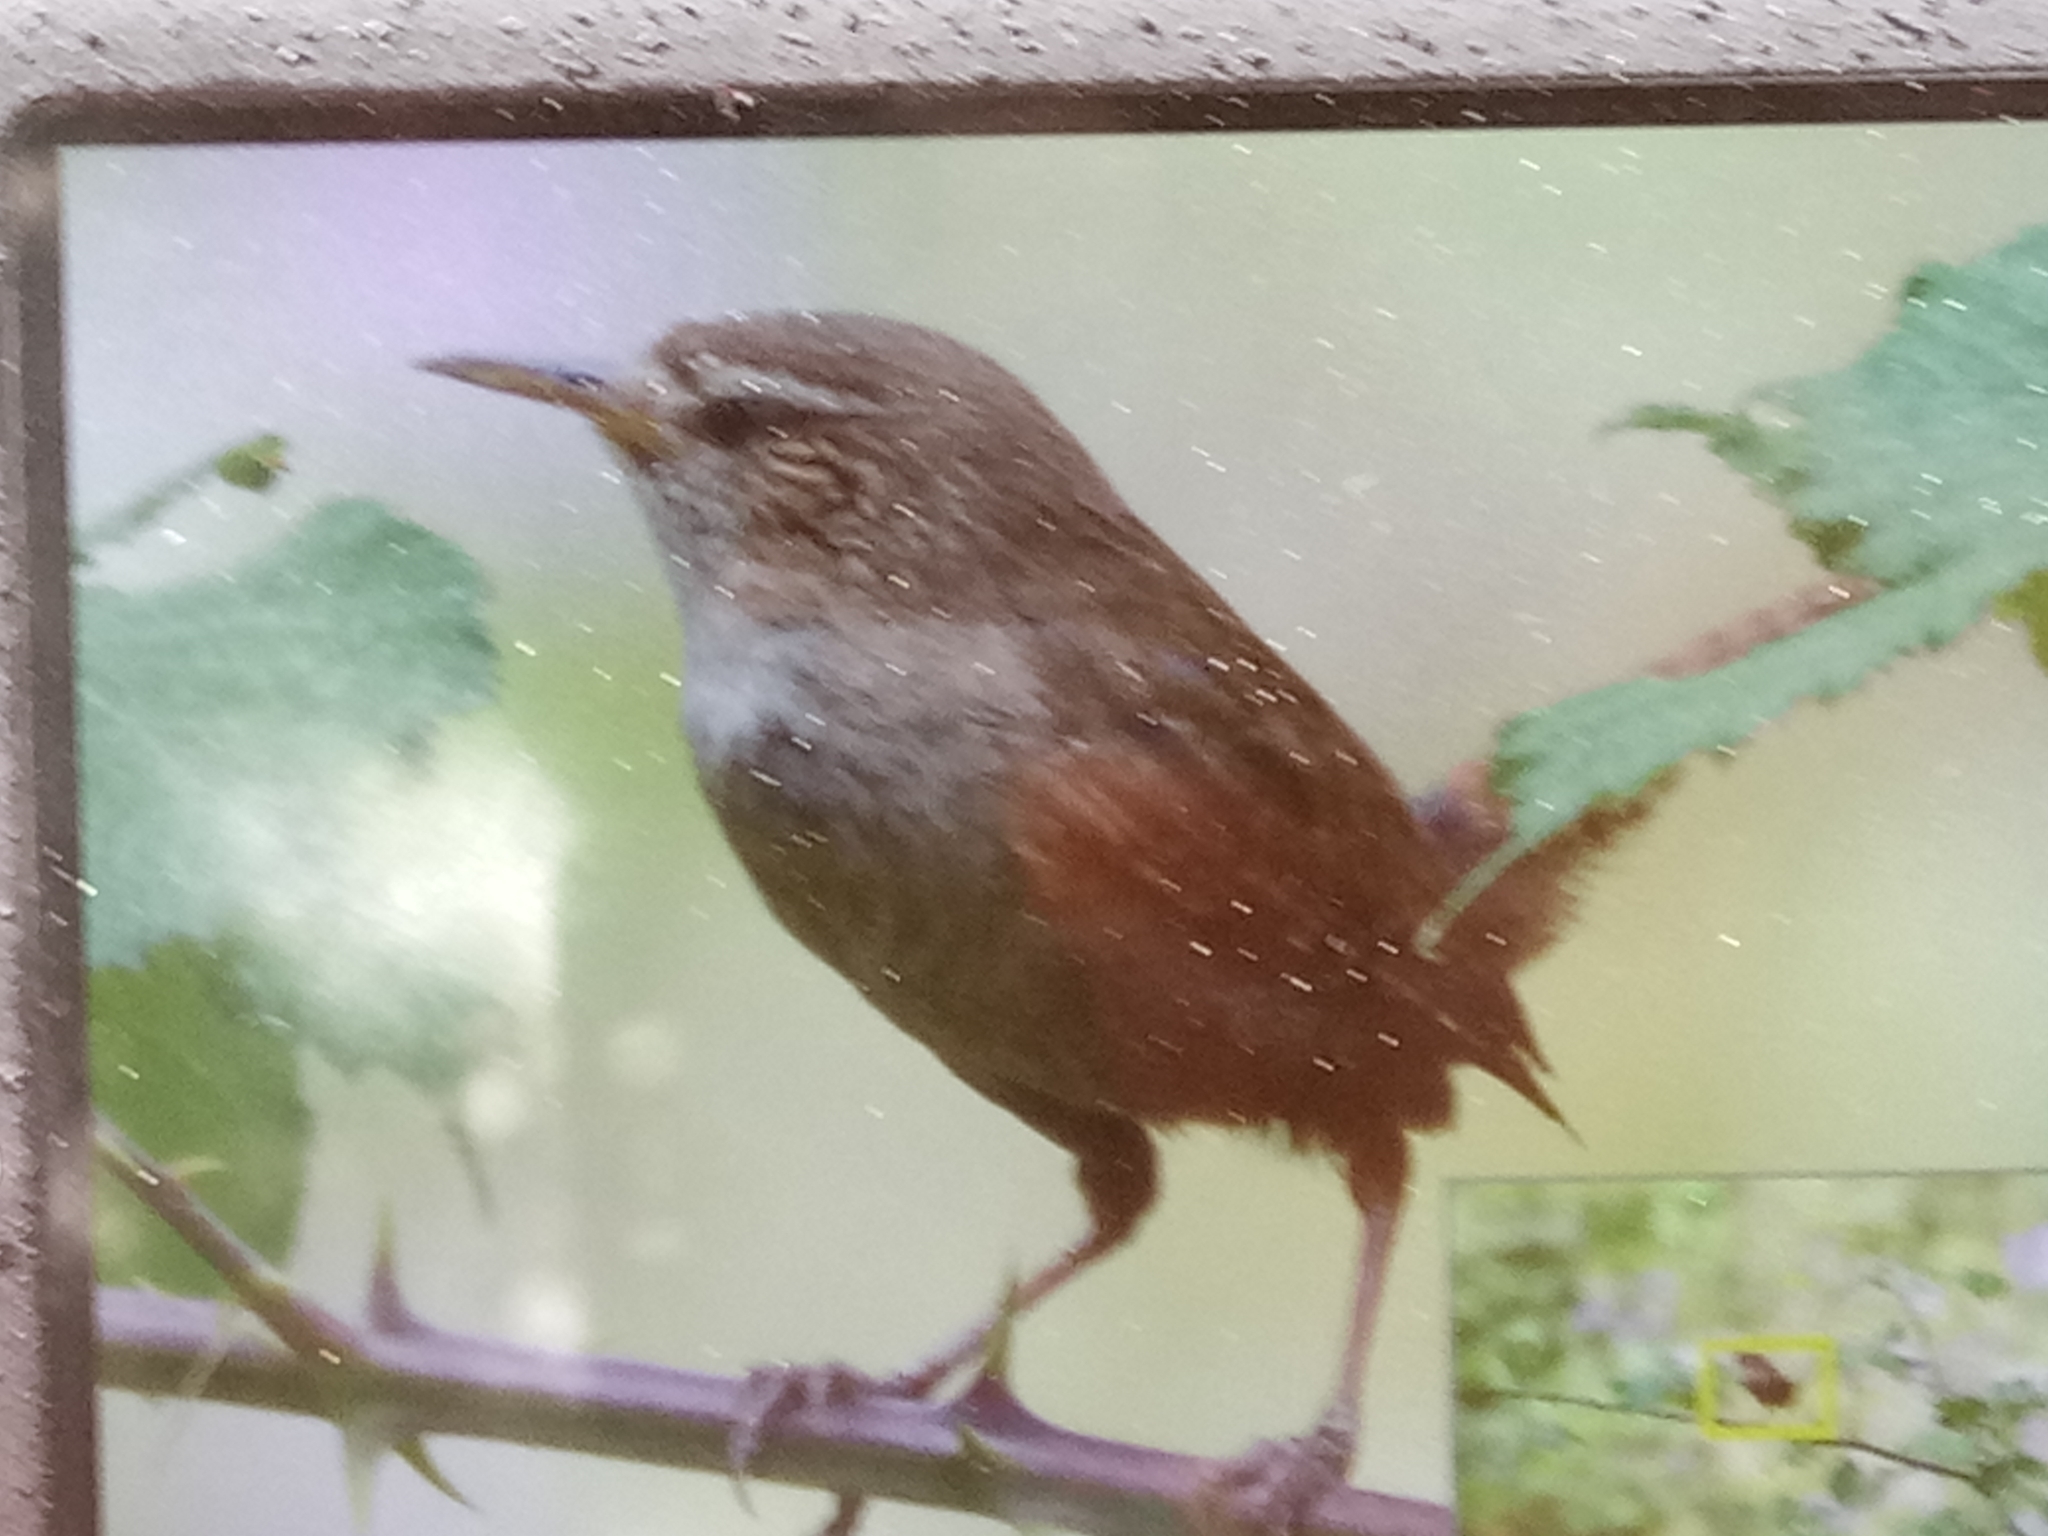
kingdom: Animalia
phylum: Chordata
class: Aves
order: Passeriformes
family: Troglodytidae
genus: Troglodytes
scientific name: Troglodytes troglodytes
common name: Eurasian wren
